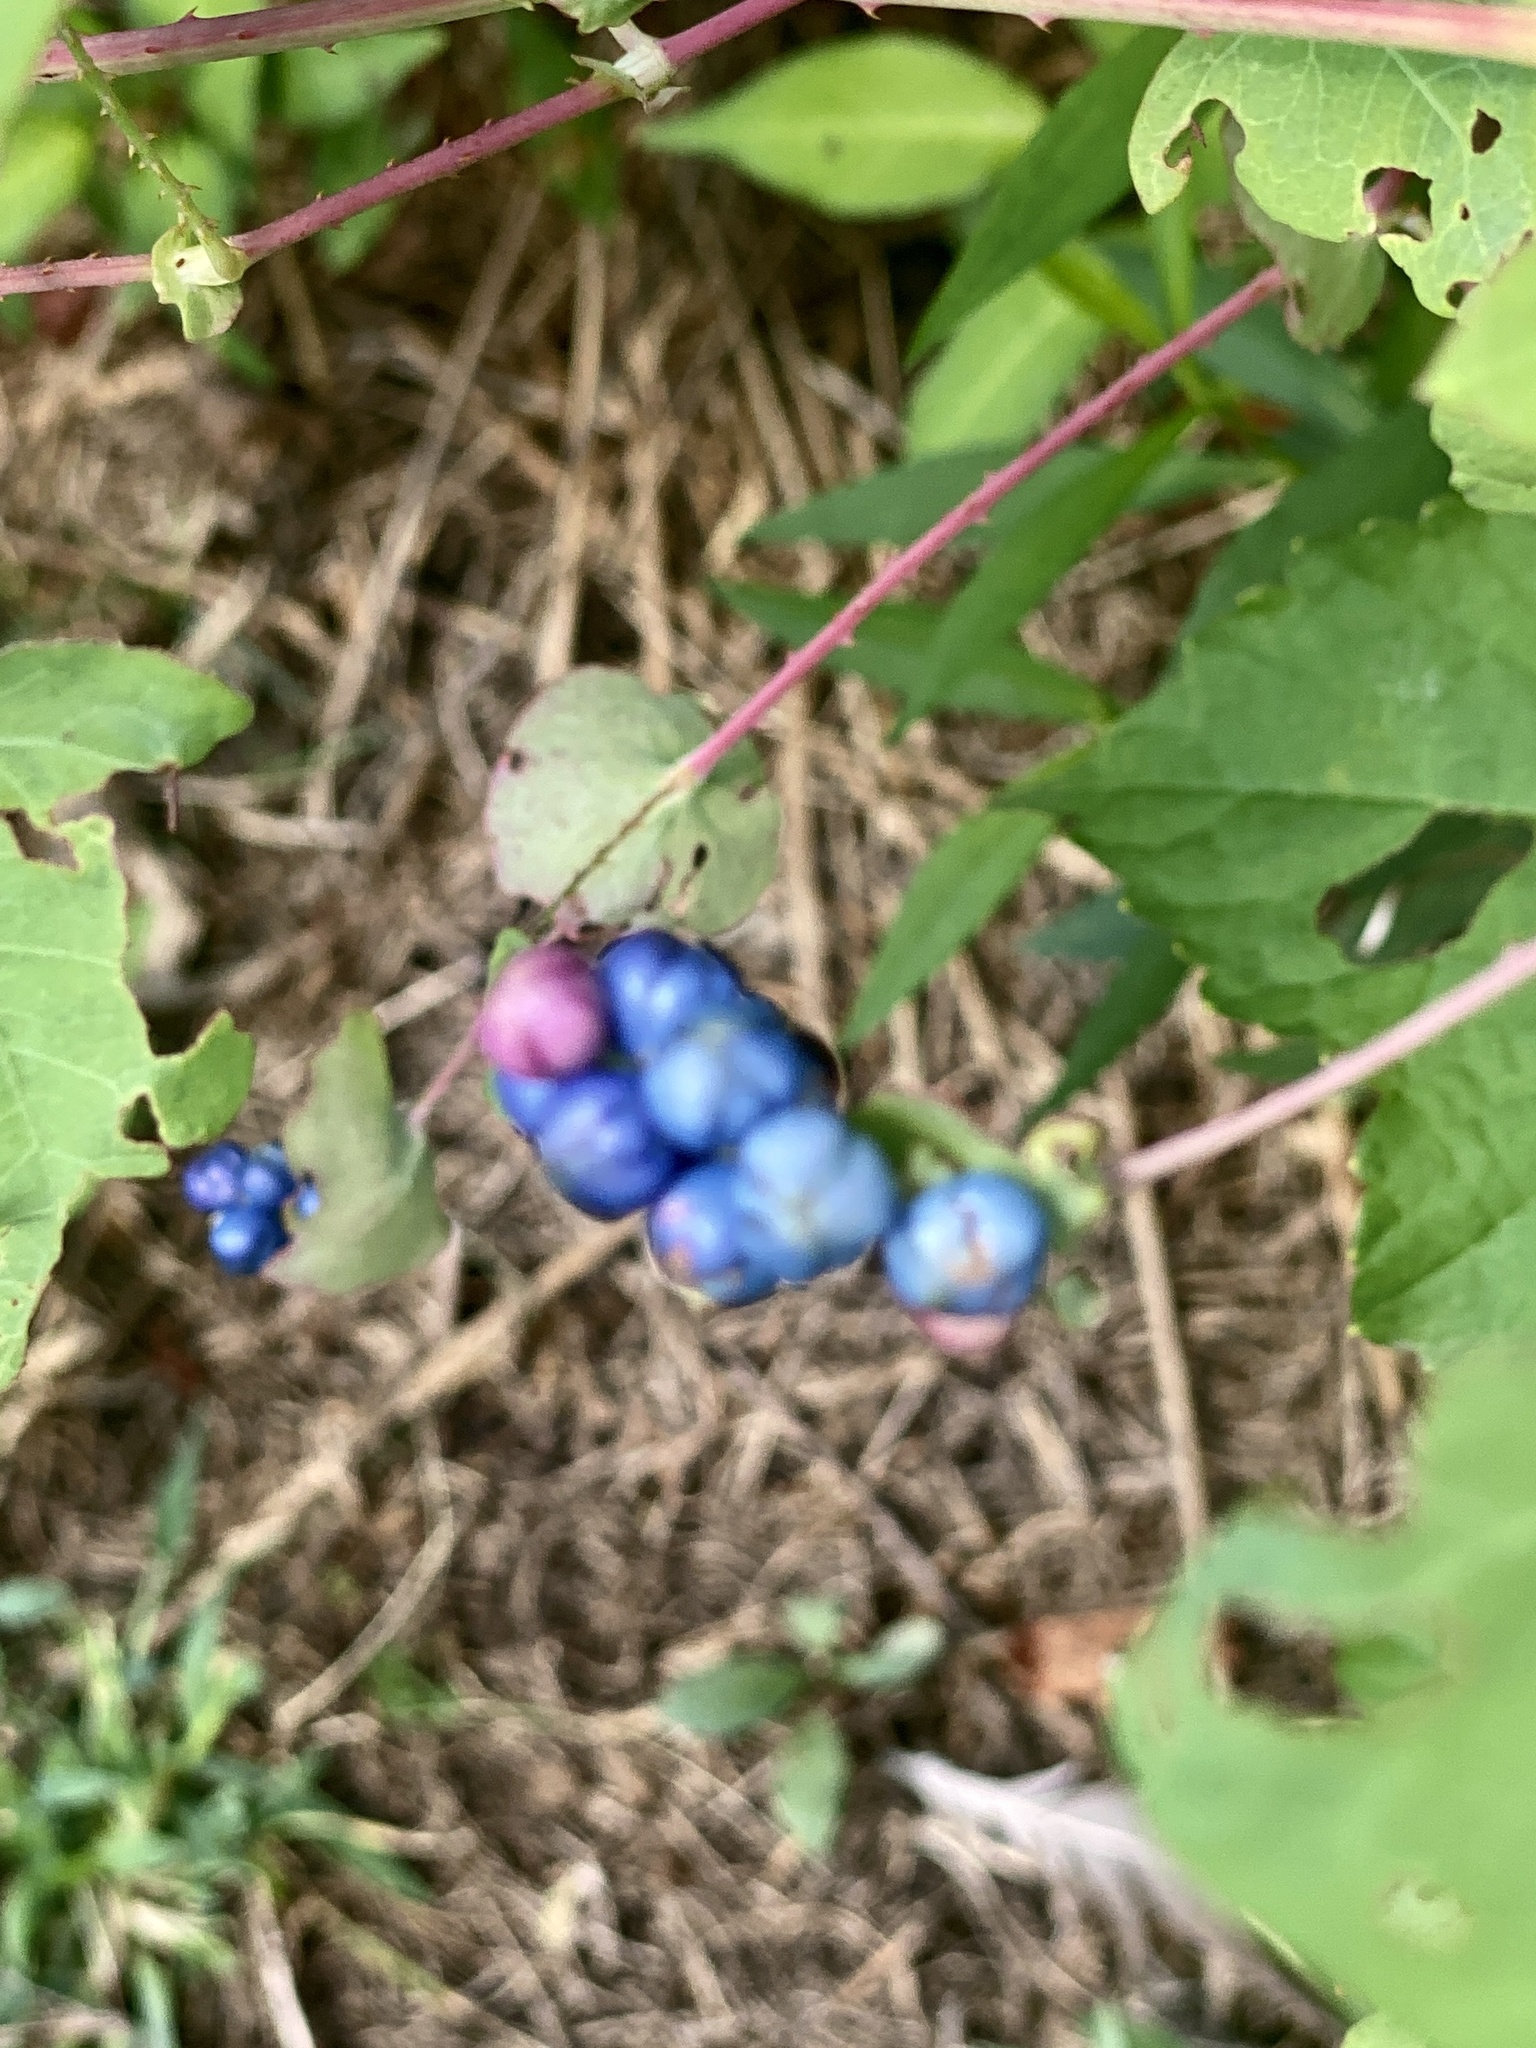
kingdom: Plantae
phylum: Tracheophyta
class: Magnoliopsida
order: Caryophyllales
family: Polygonaceae
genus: Persicaria
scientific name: Persicaria perfoliata
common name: Asiatic tearthumb
